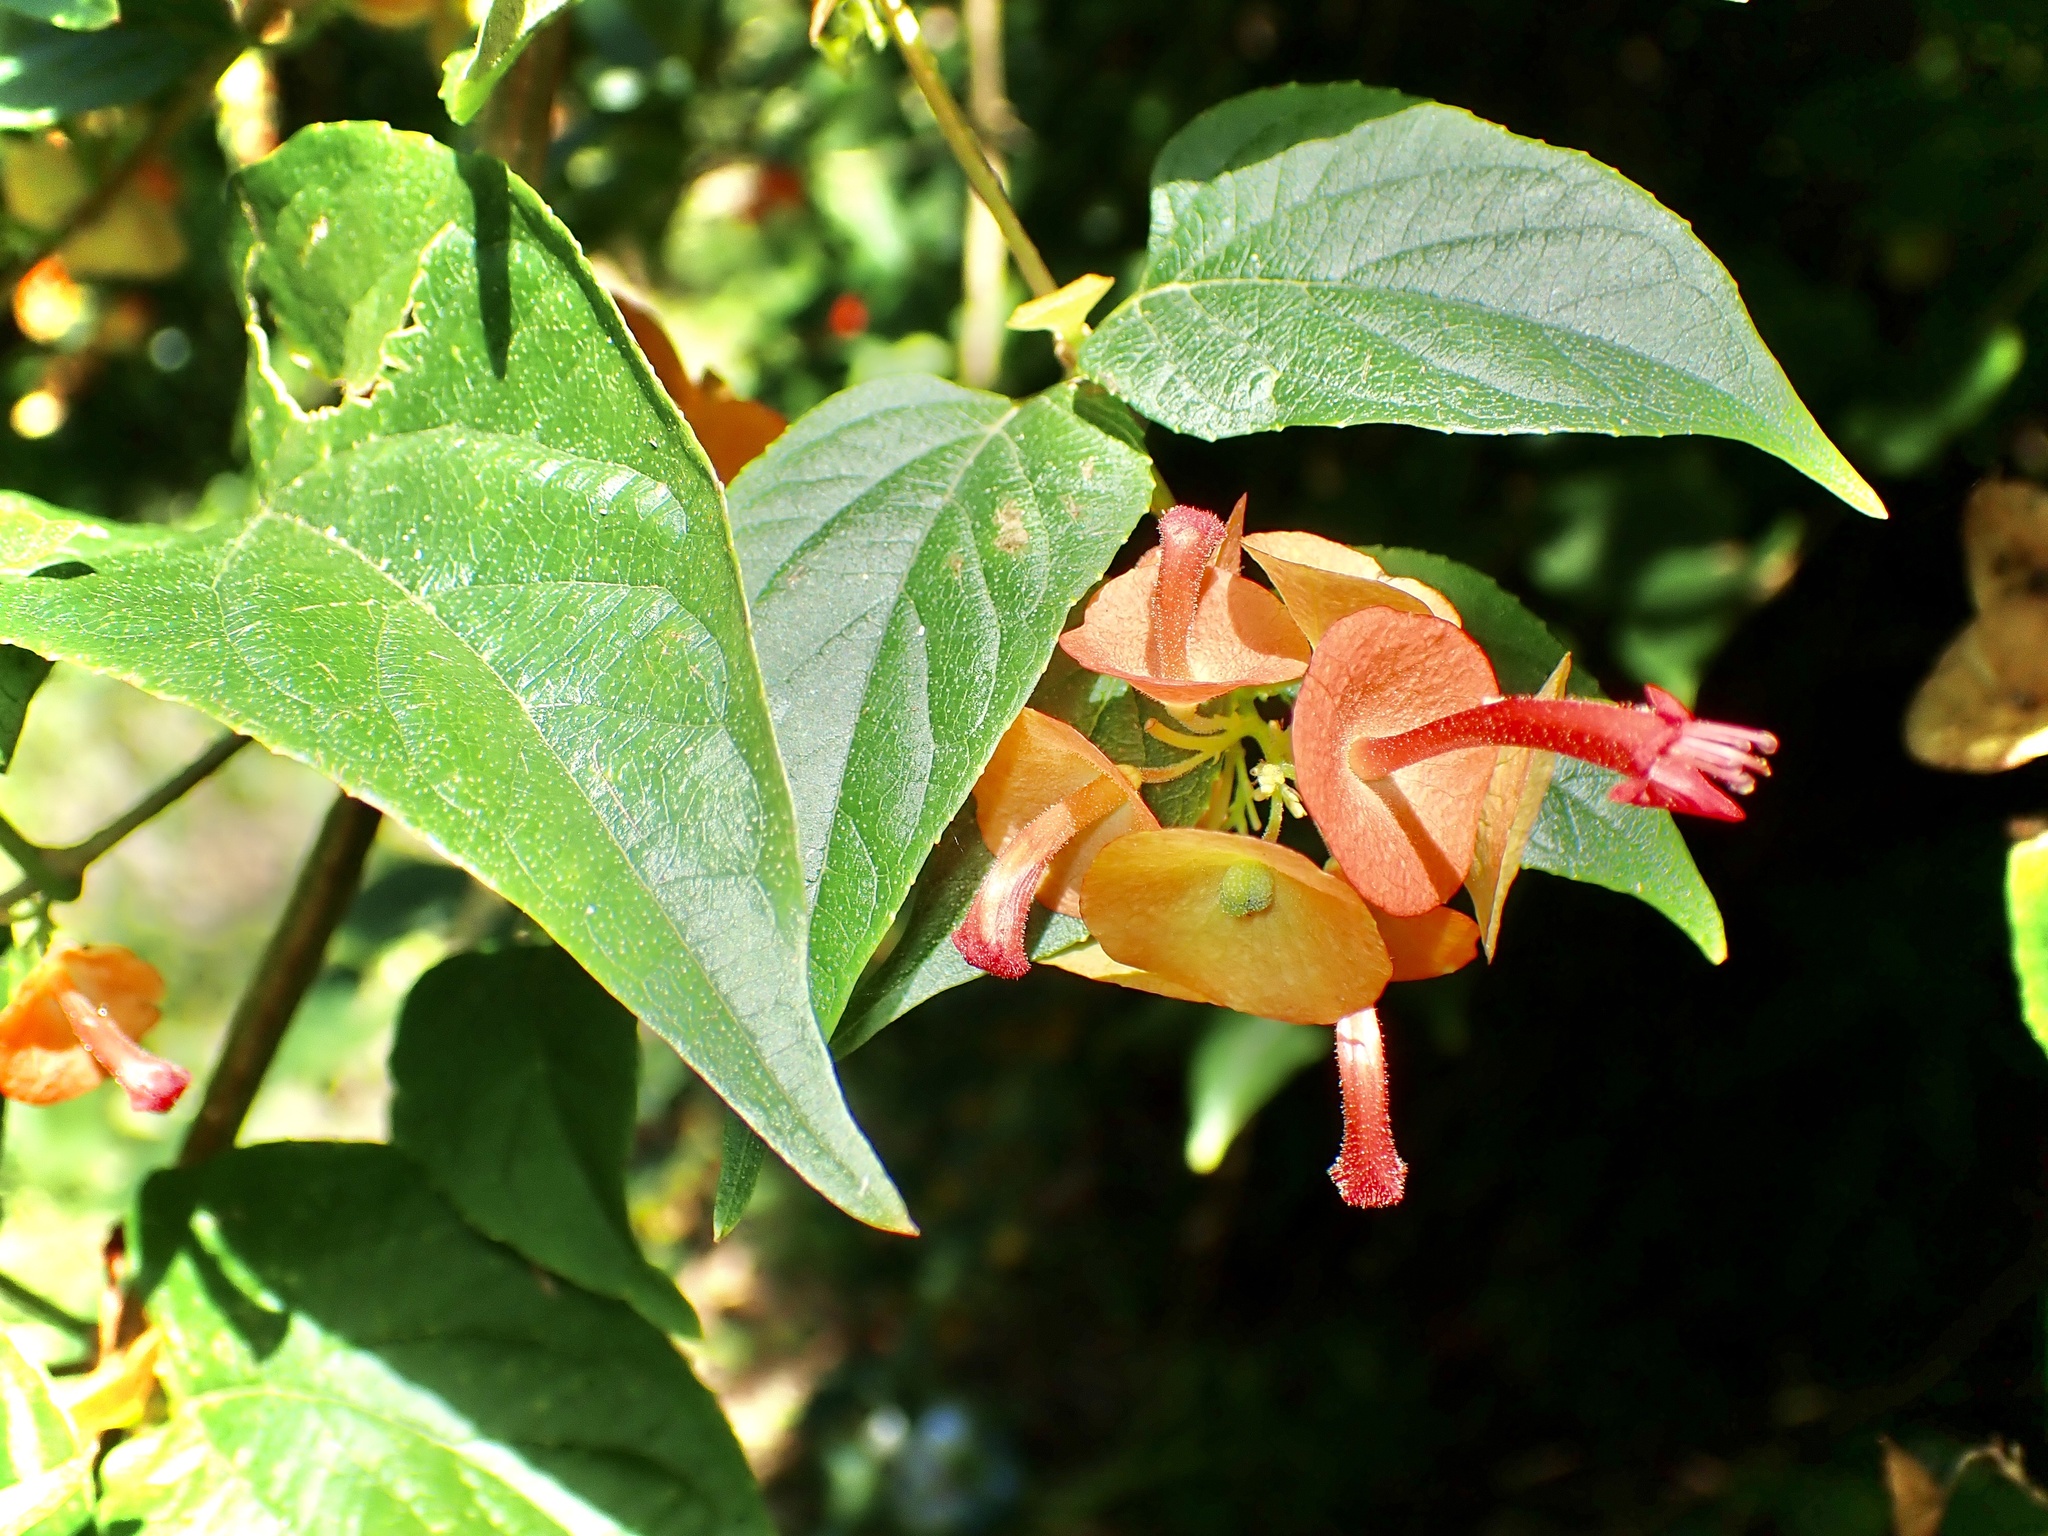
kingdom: Plantae
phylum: Tracheophyta
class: Magnoliopsida
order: Lamiales
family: Lamiaceae
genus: Holmskioldia
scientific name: Holmskioldia sanguinea
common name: Chinese hatplant
